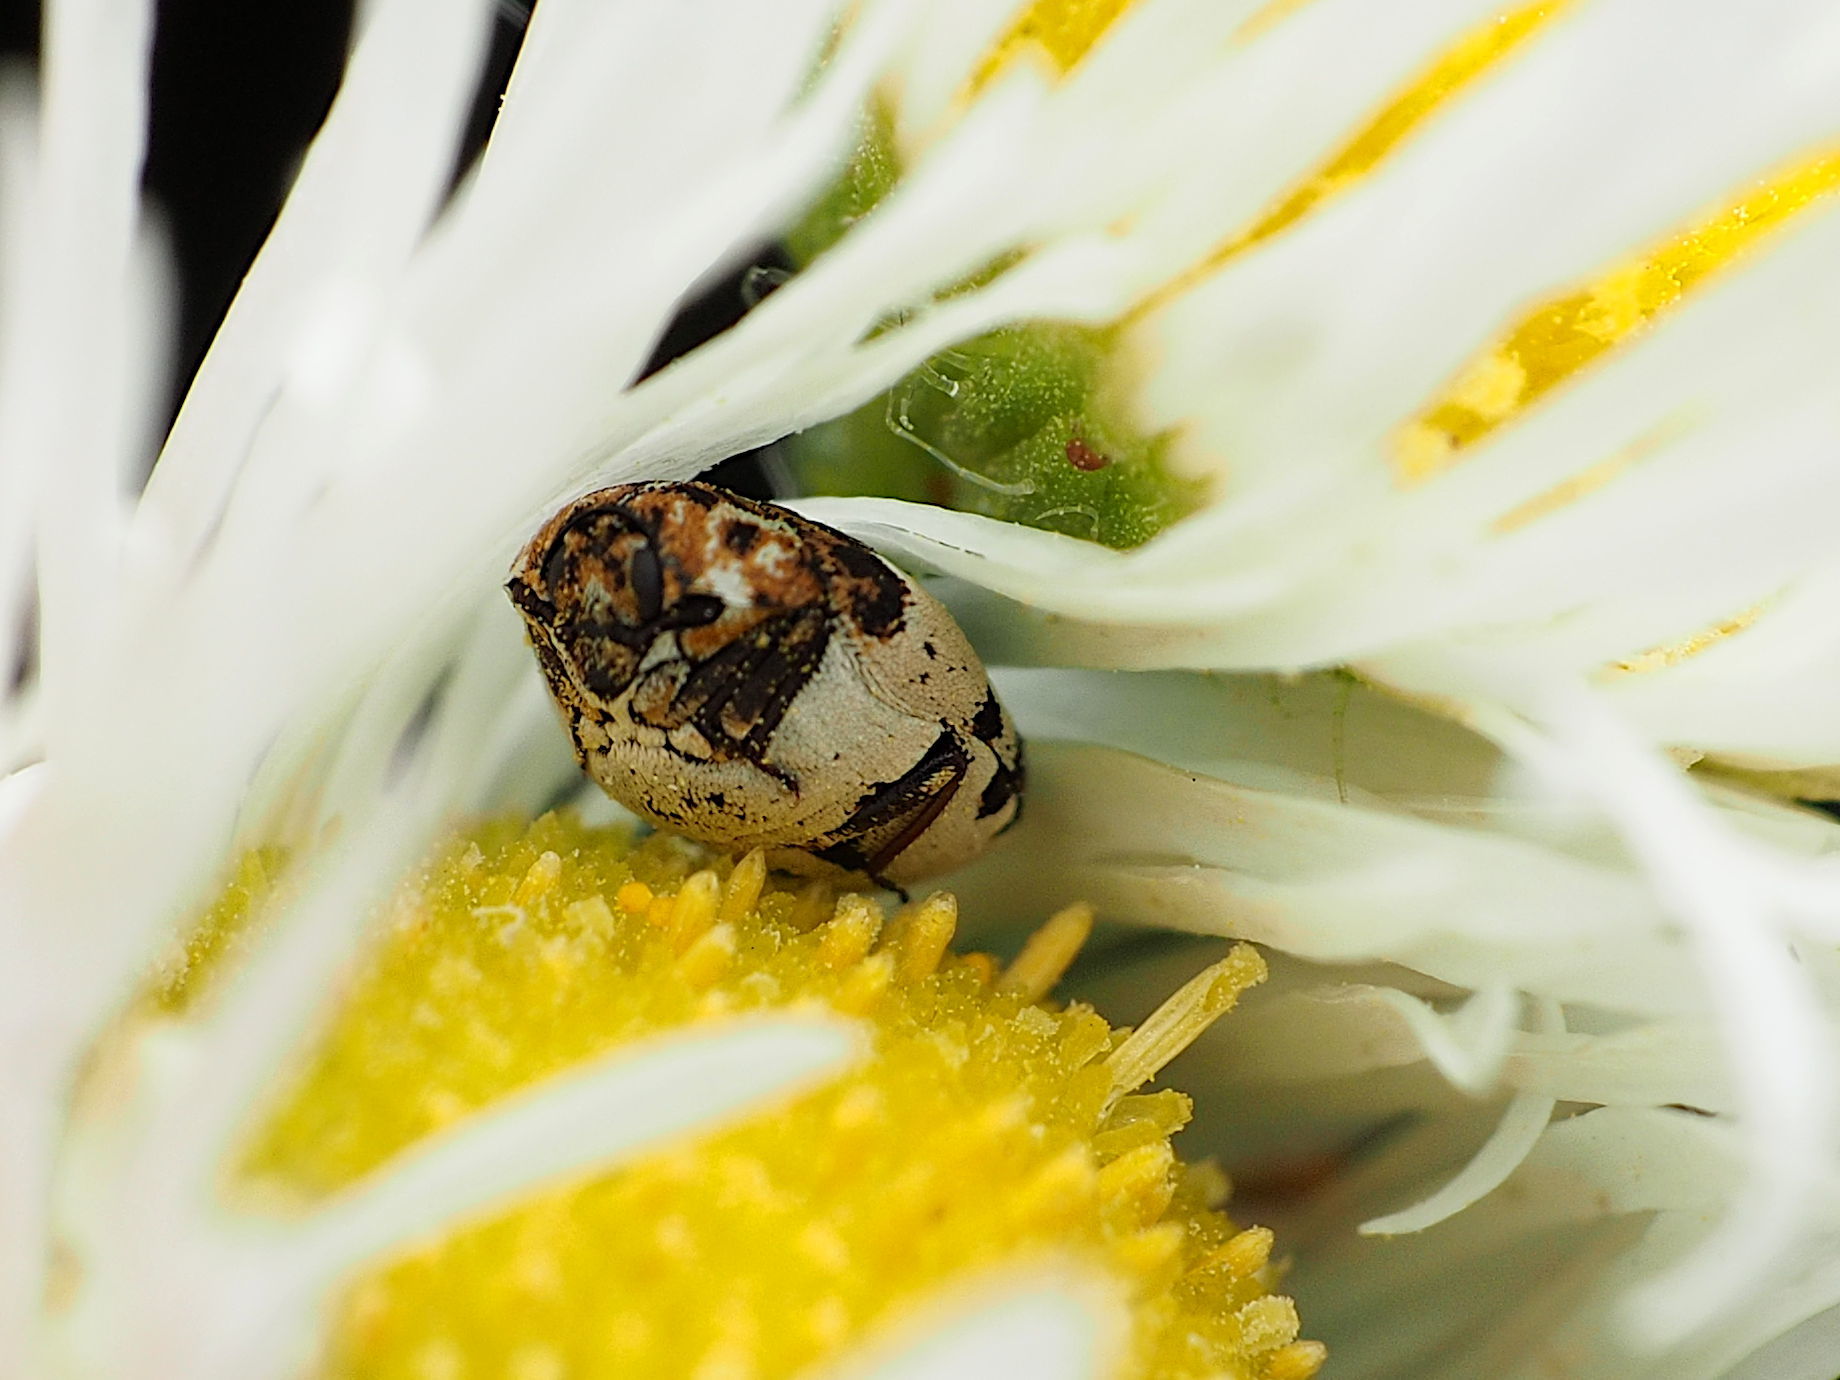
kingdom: Animalia
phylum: Arthropoda
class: Insecta
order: Coleoptera
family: Dermestidae
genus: Anthrenus
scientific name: Anthrenus isabellinus
